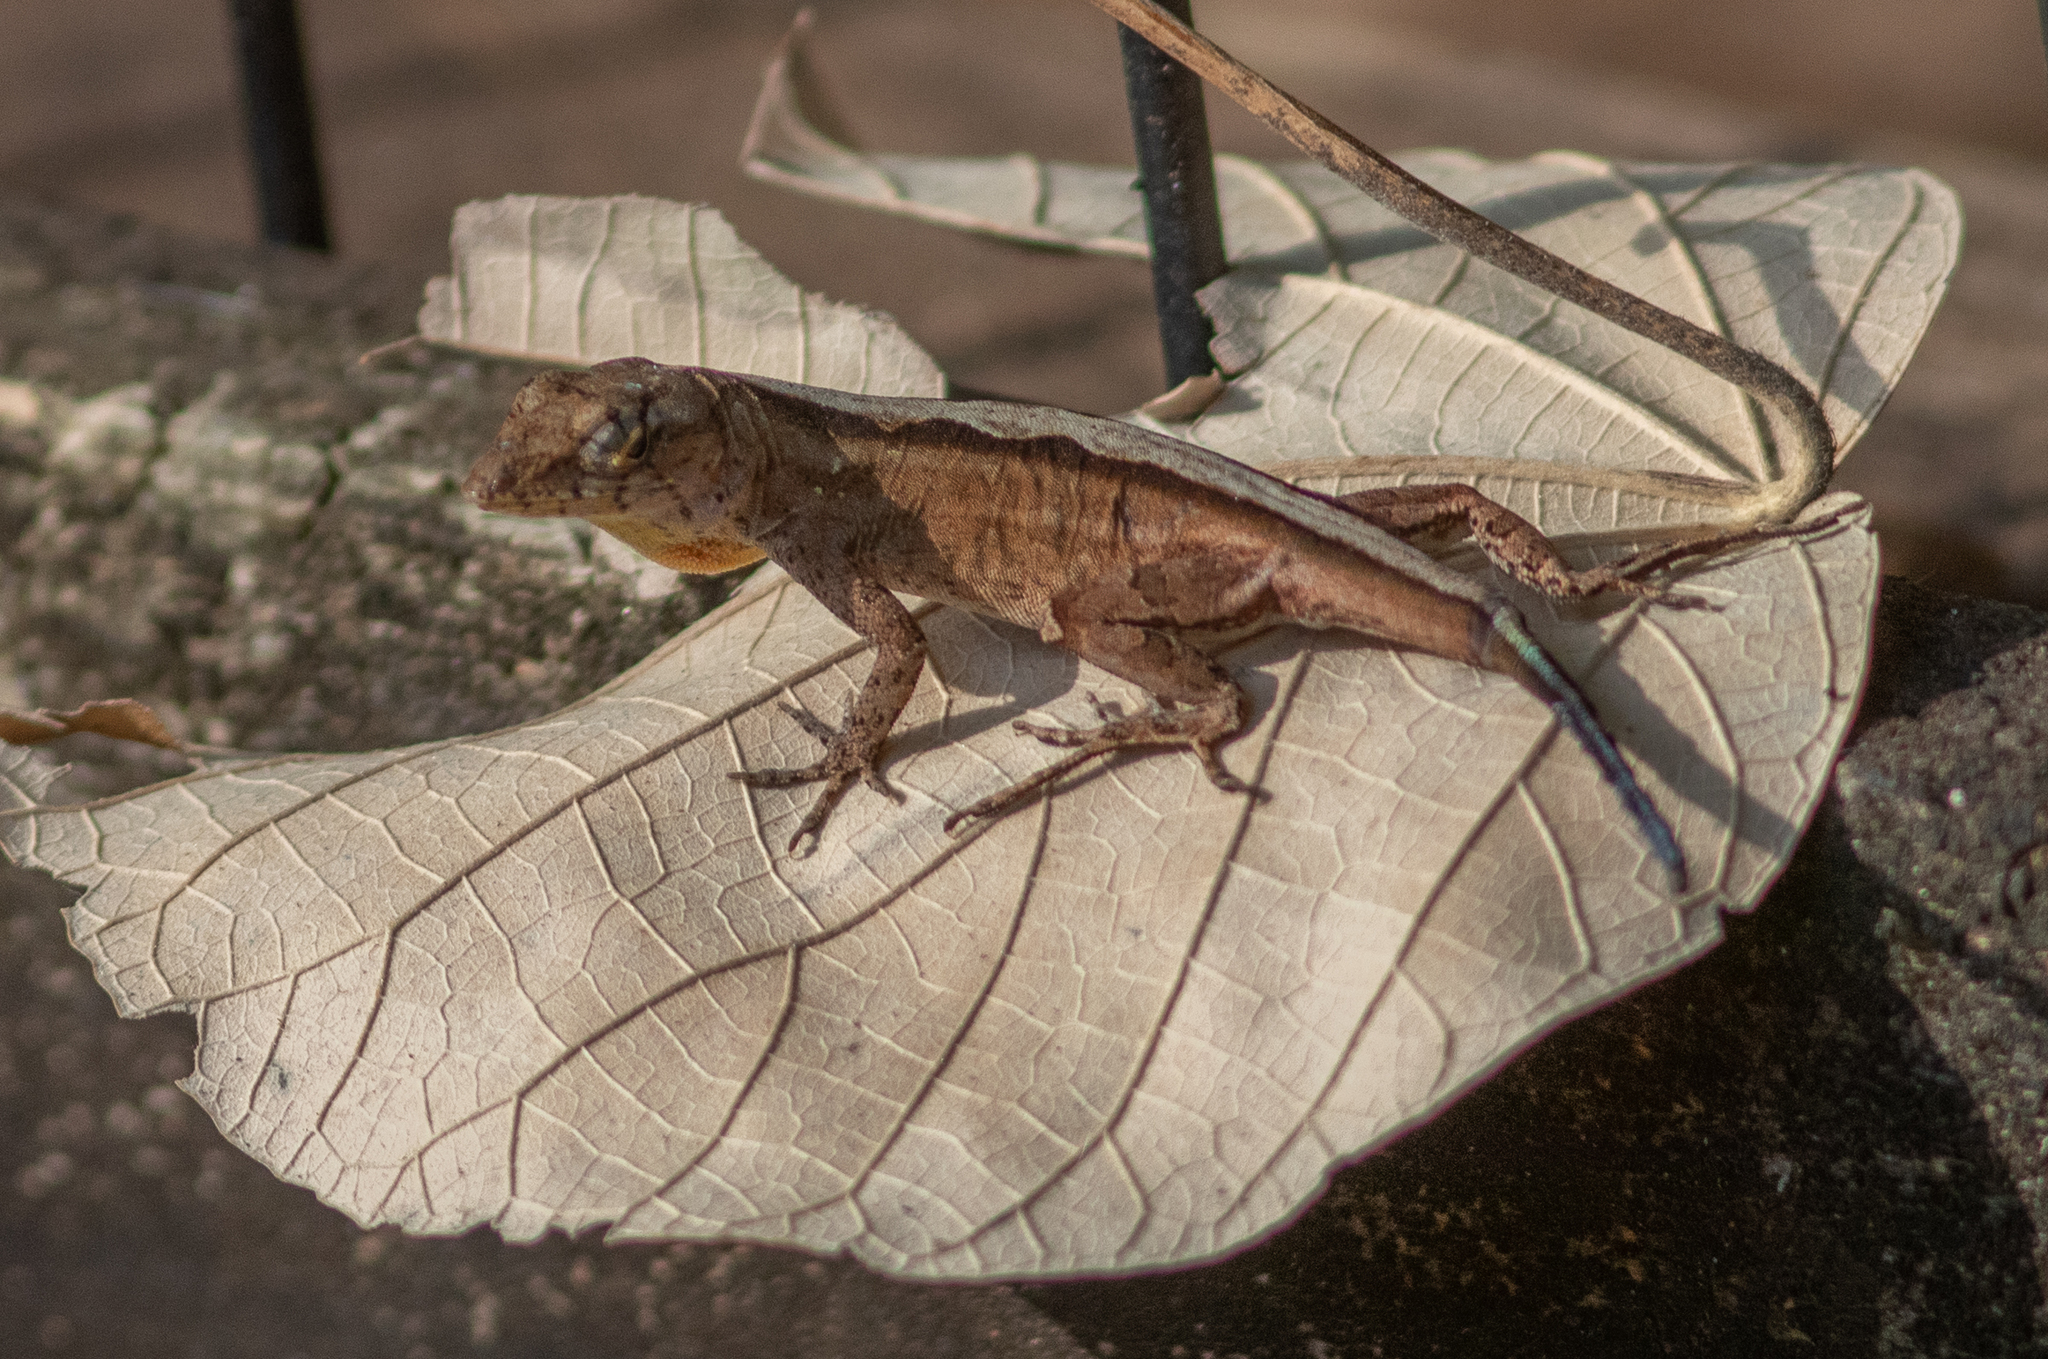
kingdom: Animalia
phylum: Chordata
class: Squamata
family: Dactyloidae
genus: Anolis
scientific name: Anolis sagrei
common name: Brown anole
